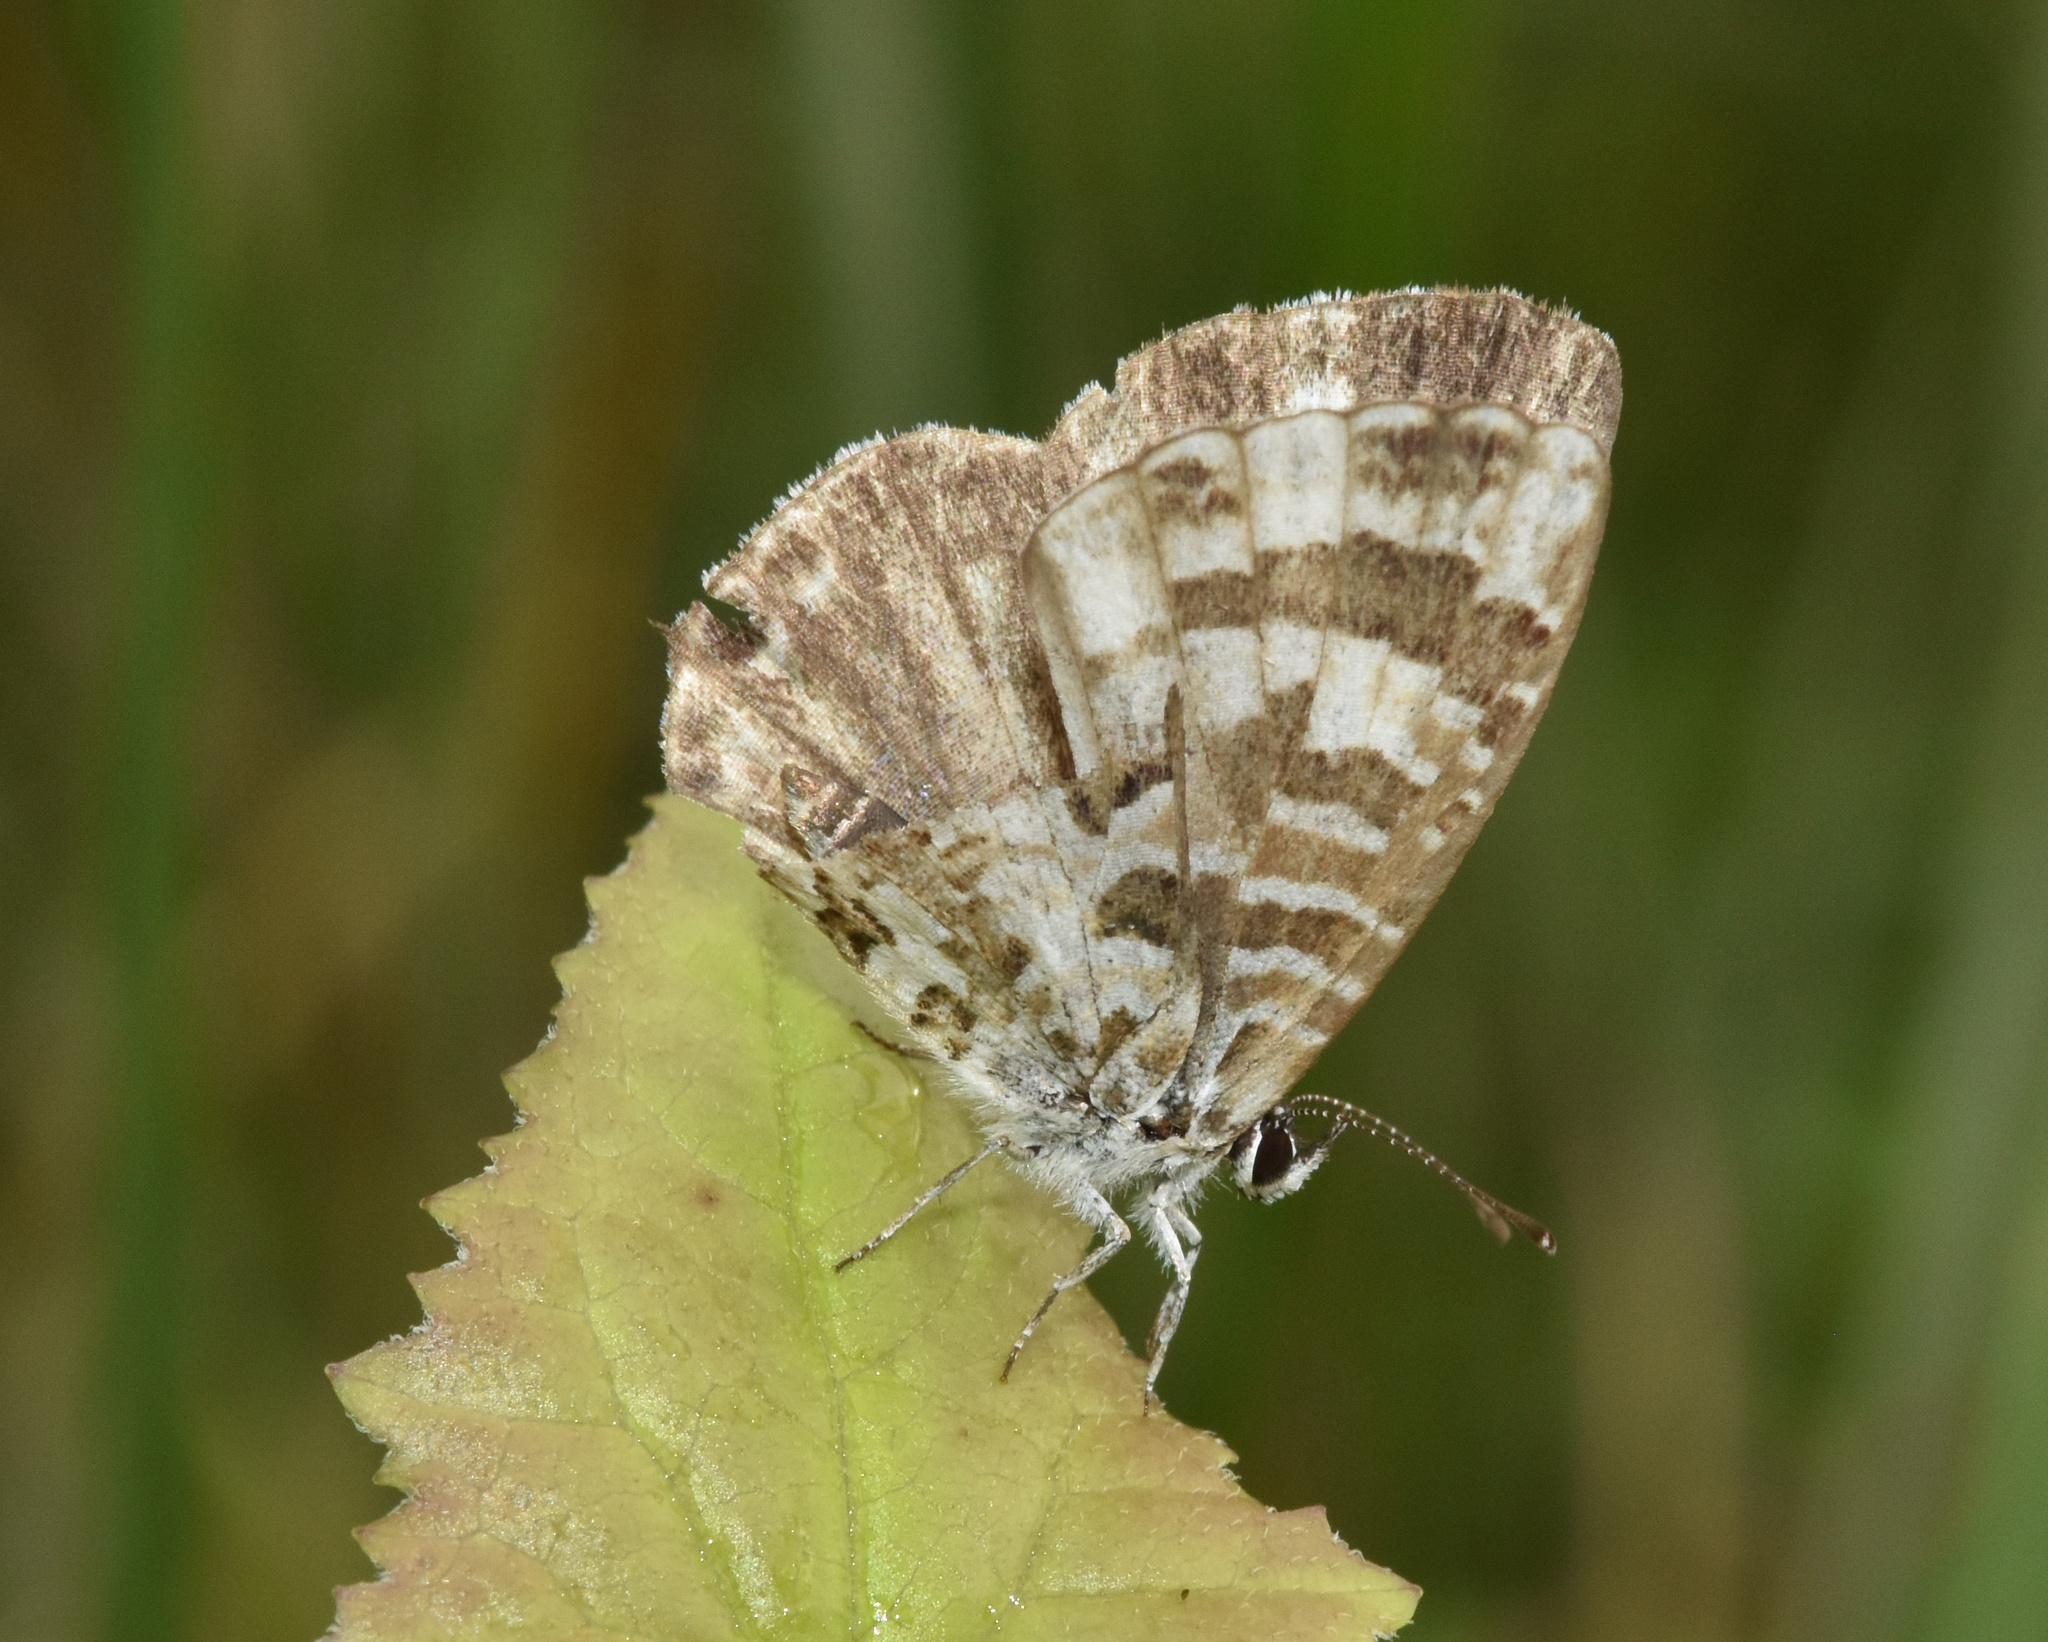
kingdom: Animalia
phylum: Arthropoda
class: Insecta
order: Lepidoptera
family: Lycaenidae
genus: Cacyreus
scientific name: Cacyreus lingeus
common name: Bush bronze
